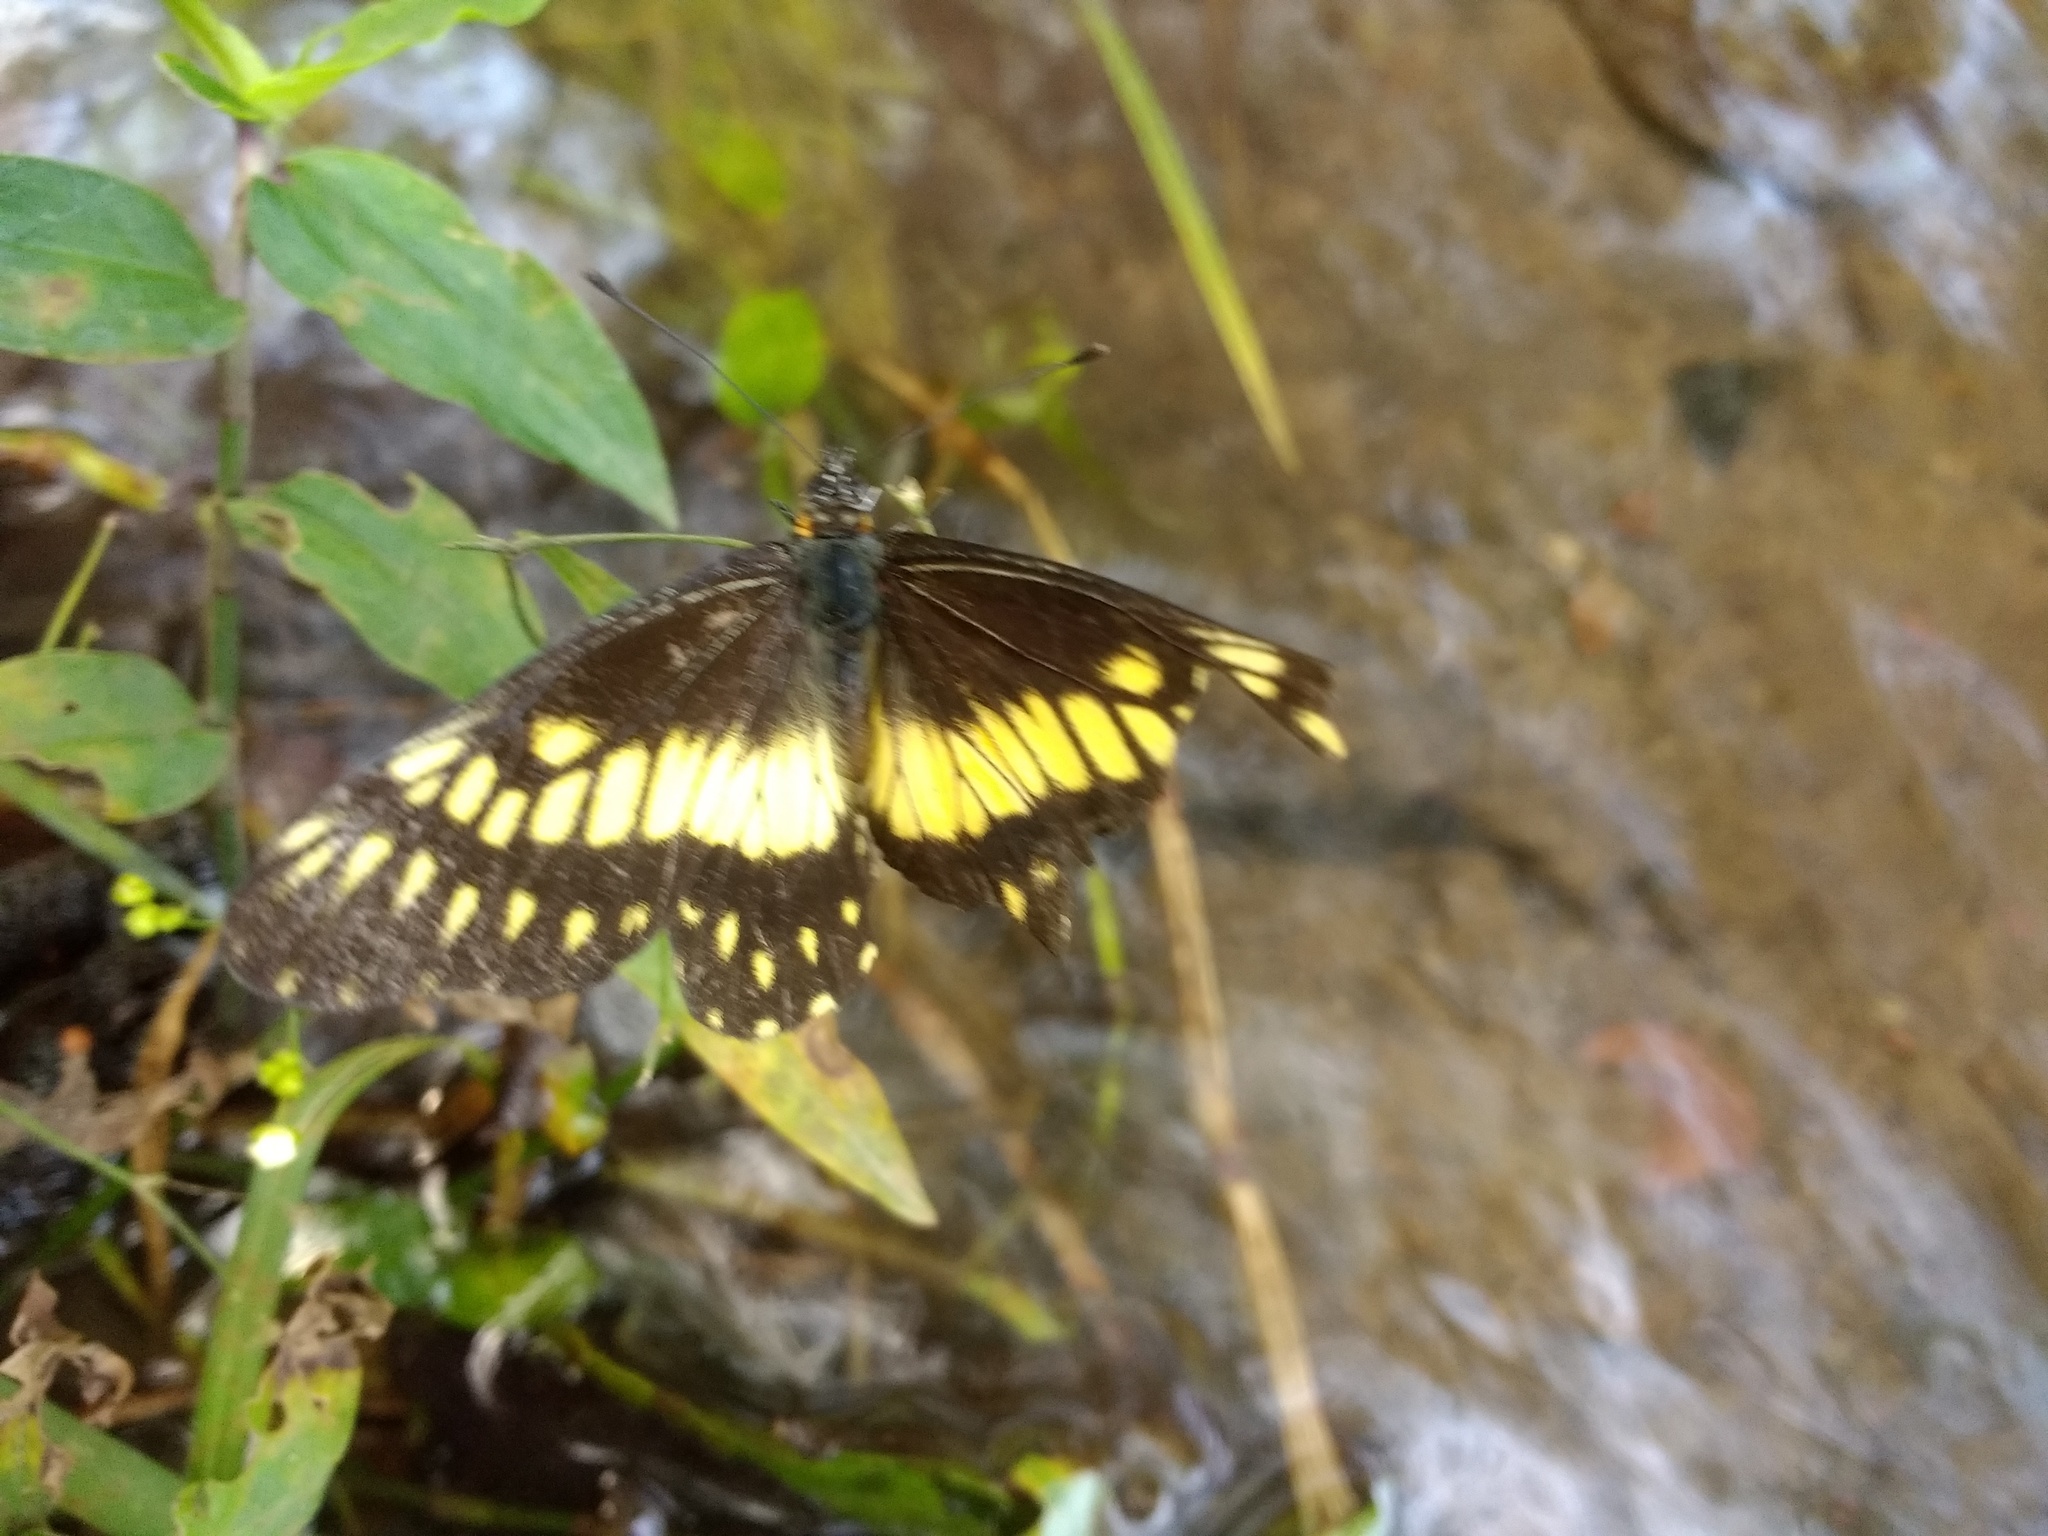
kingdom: Animalia
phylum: Arthropoda
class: Insecta
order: Lepidoptera
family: Pieridae
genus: Archonias
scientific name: Archonias nimbice
